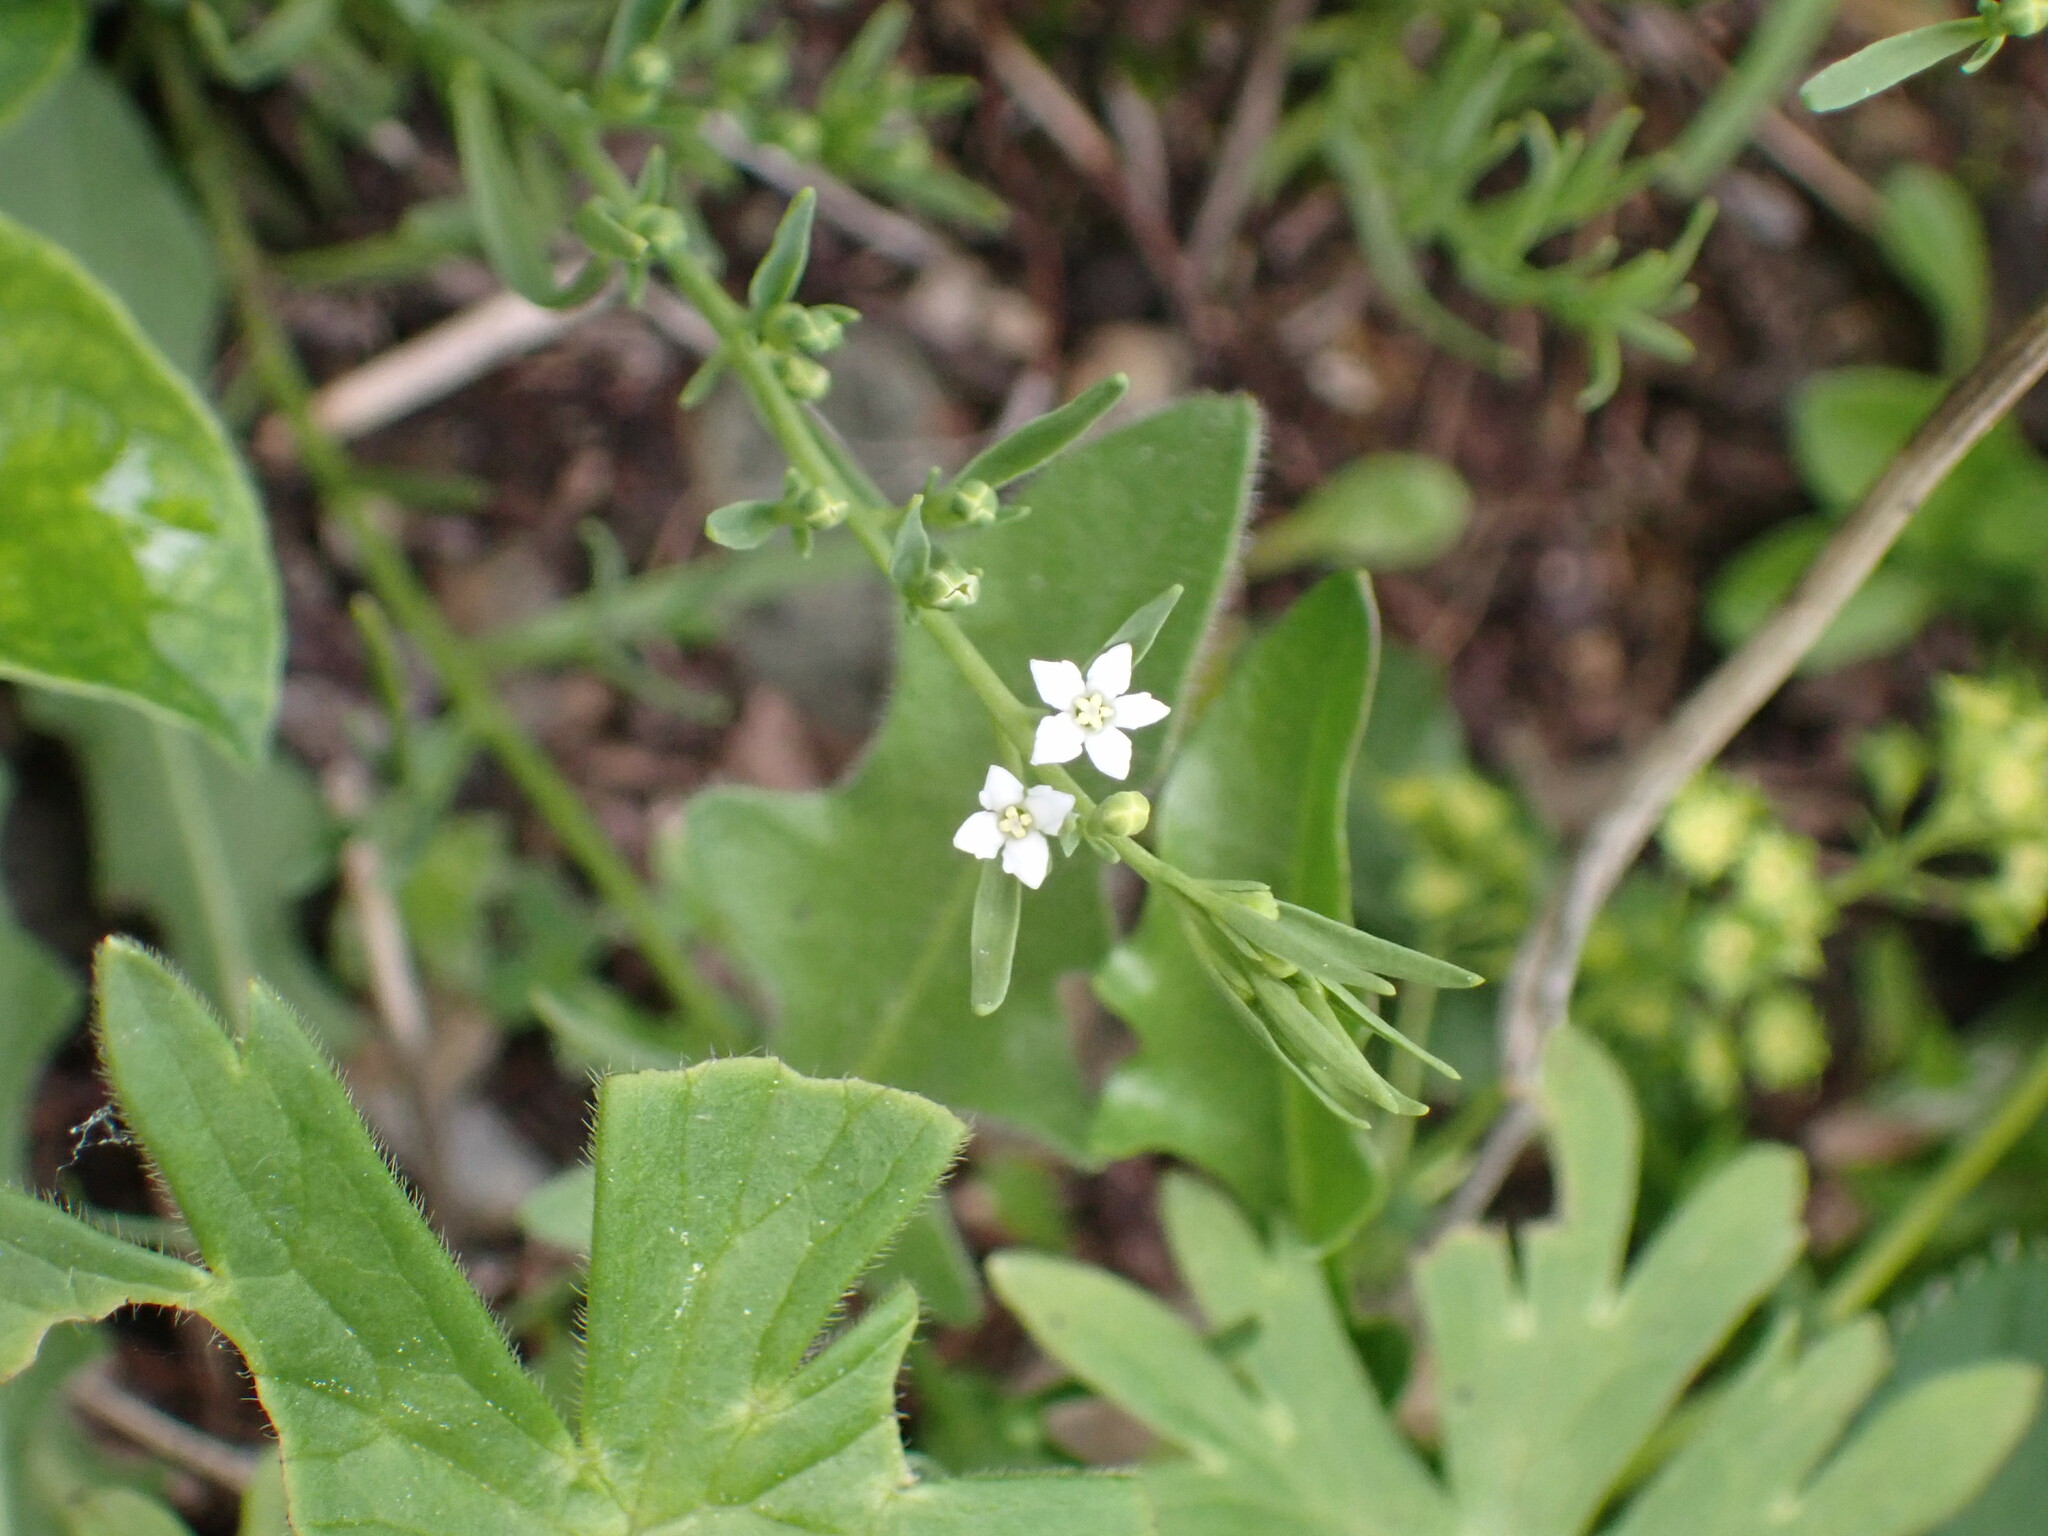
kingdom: Plantae
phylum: Tracheophyta
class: Magnoliopsida
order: Santalales
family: Thesiaceae
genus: Thesium
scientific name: Thesium alpinum
